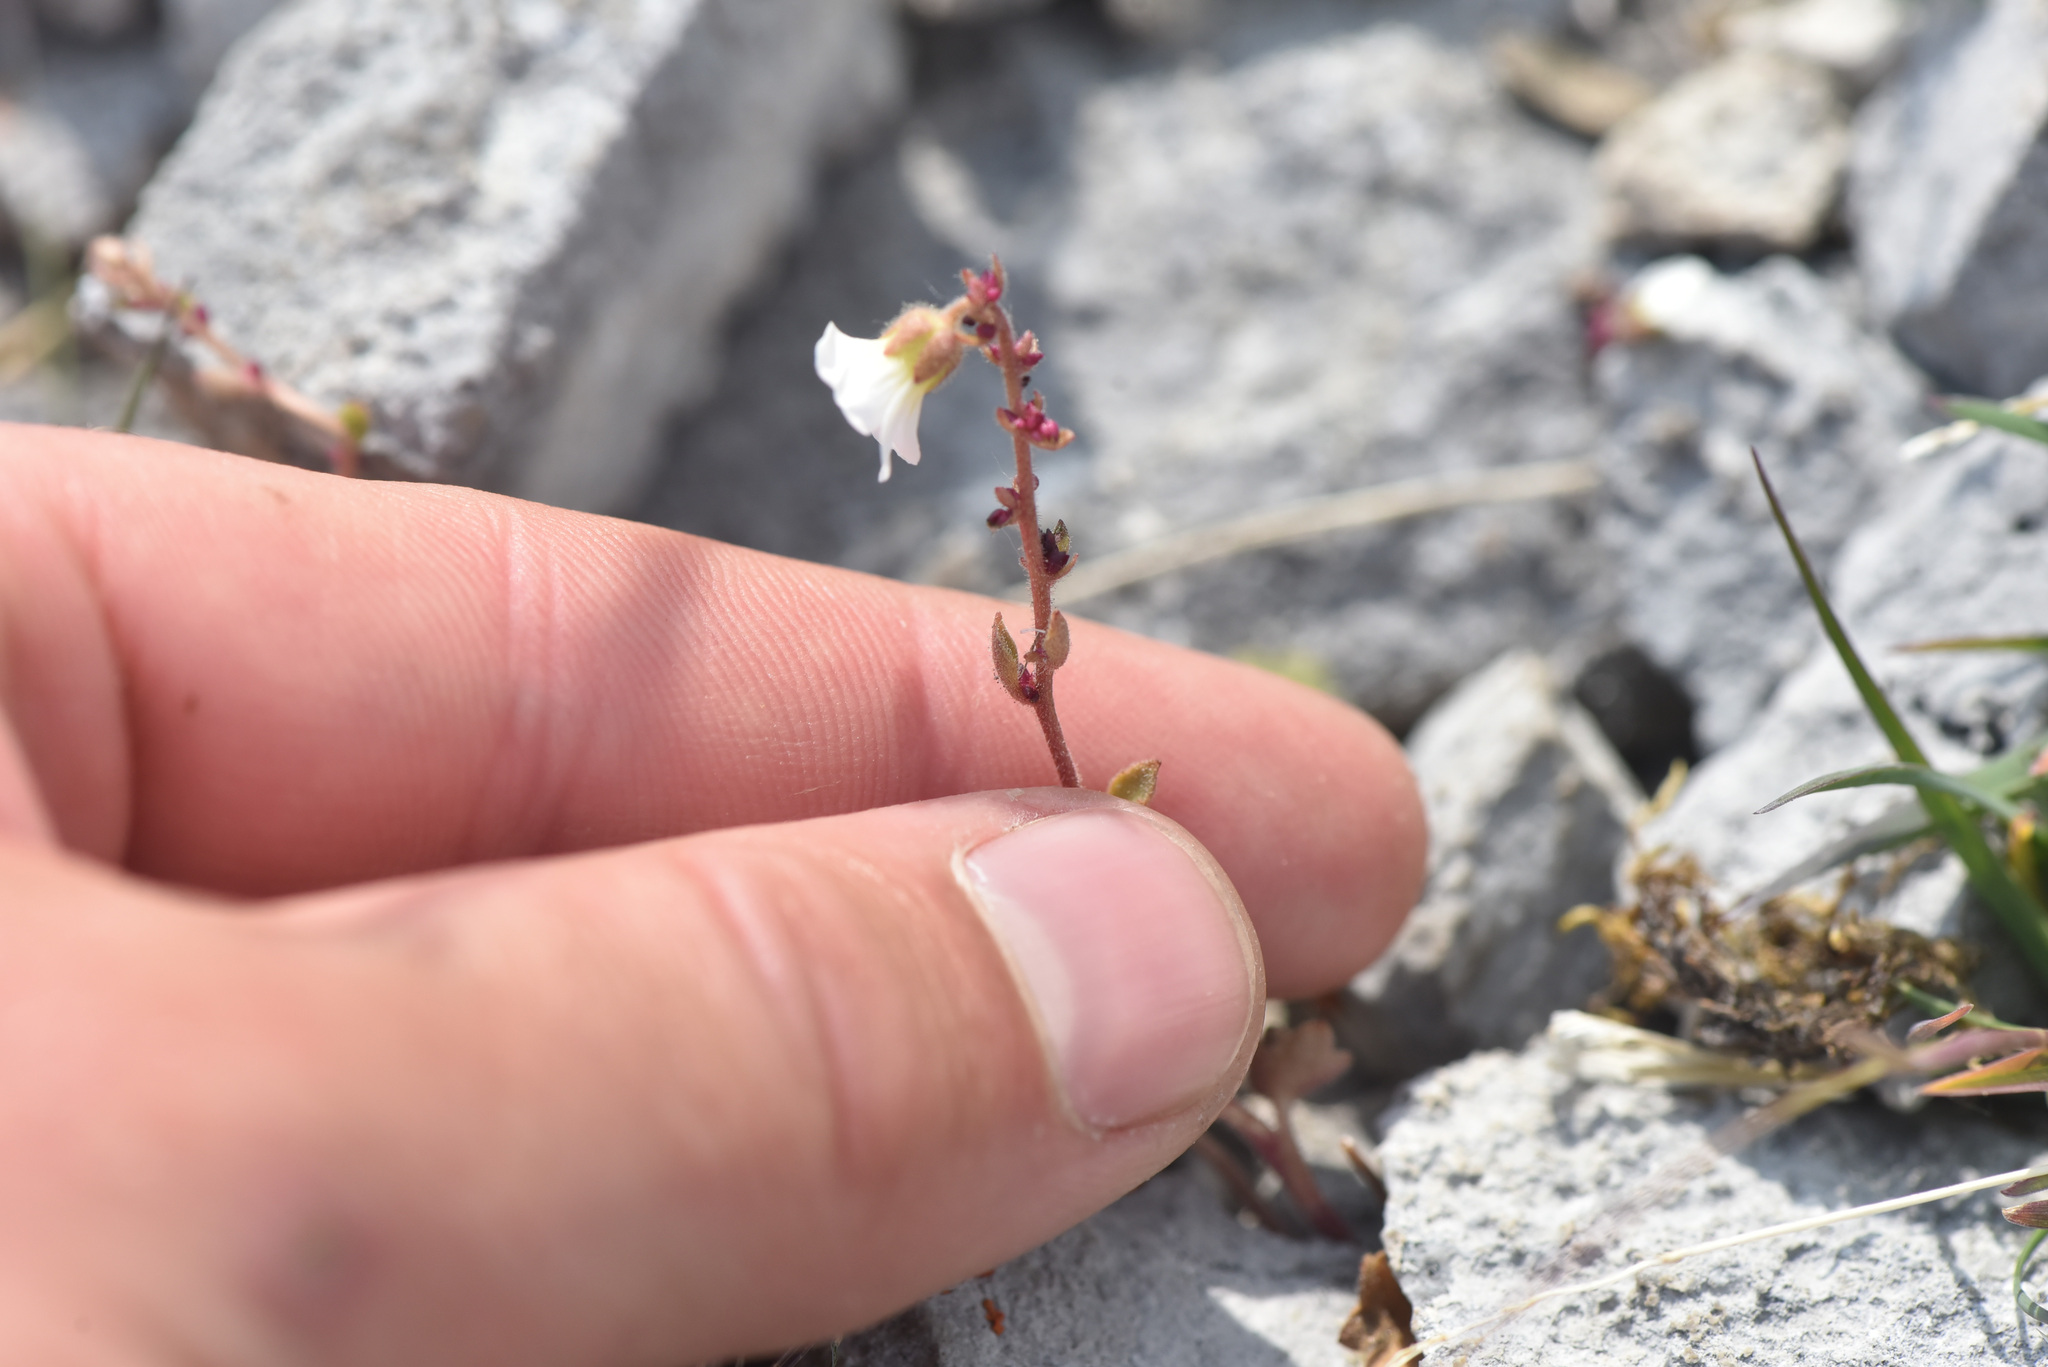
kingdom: Plantae
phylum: Tracheophyta
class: Magnoliopsida
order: Saxifragales
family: Saxifragaceae
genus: Saxifraga
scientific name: Saxifraga cernua
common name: Drooping saxifrage
